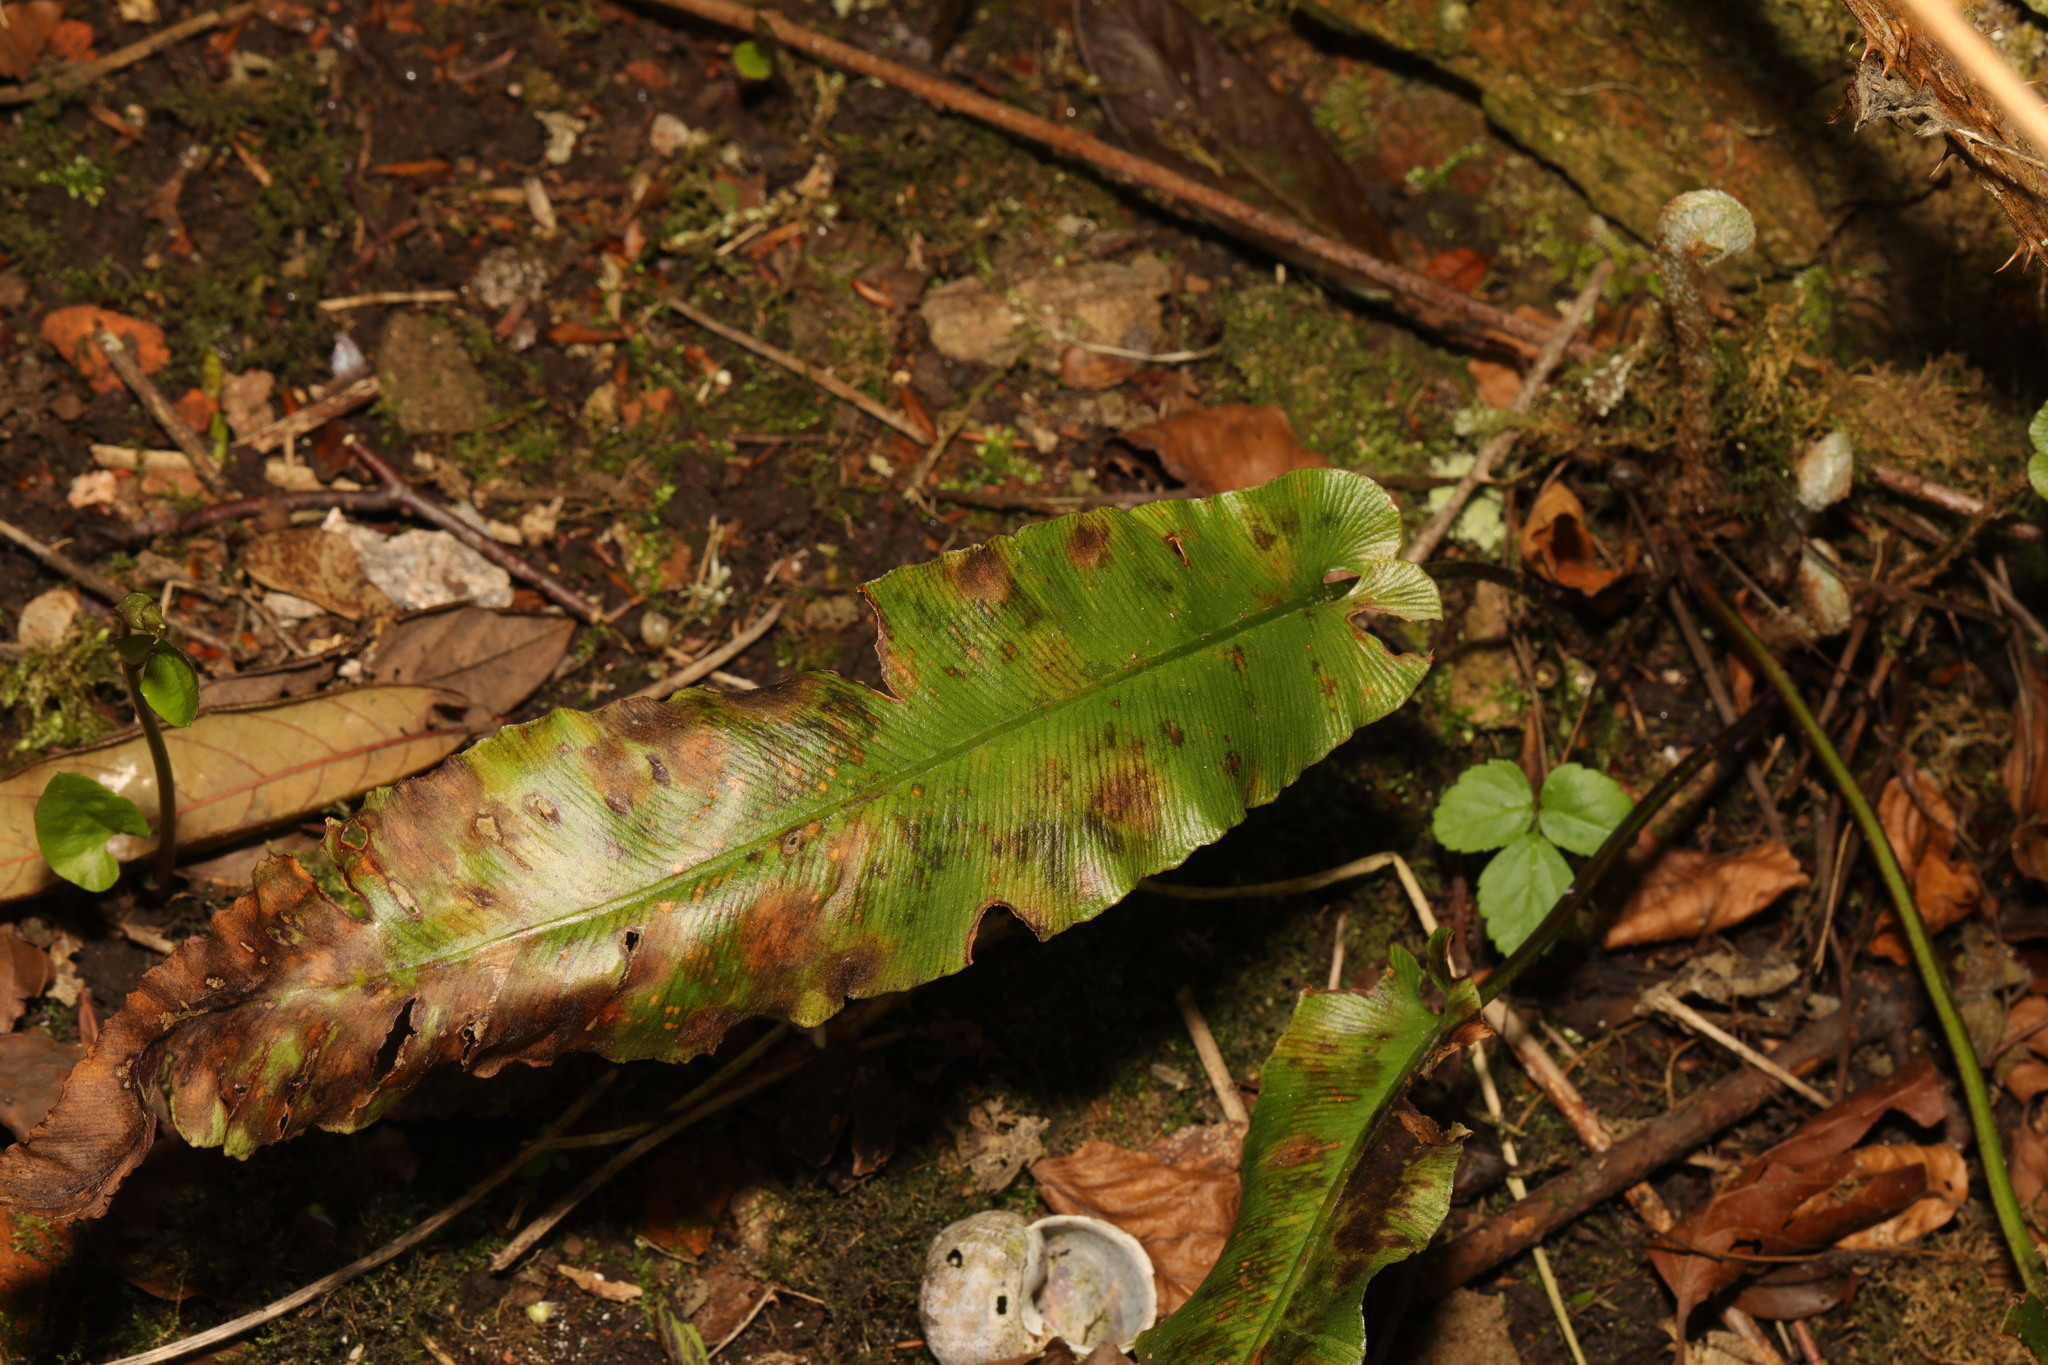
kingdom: Plantae
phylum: Tracheophyta
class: Polypodiopsida
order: Polypodiales
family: Aspleniaceae
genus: Asplenium
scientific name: Asplenium scolopendrium
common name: Hart's-tongue fern
